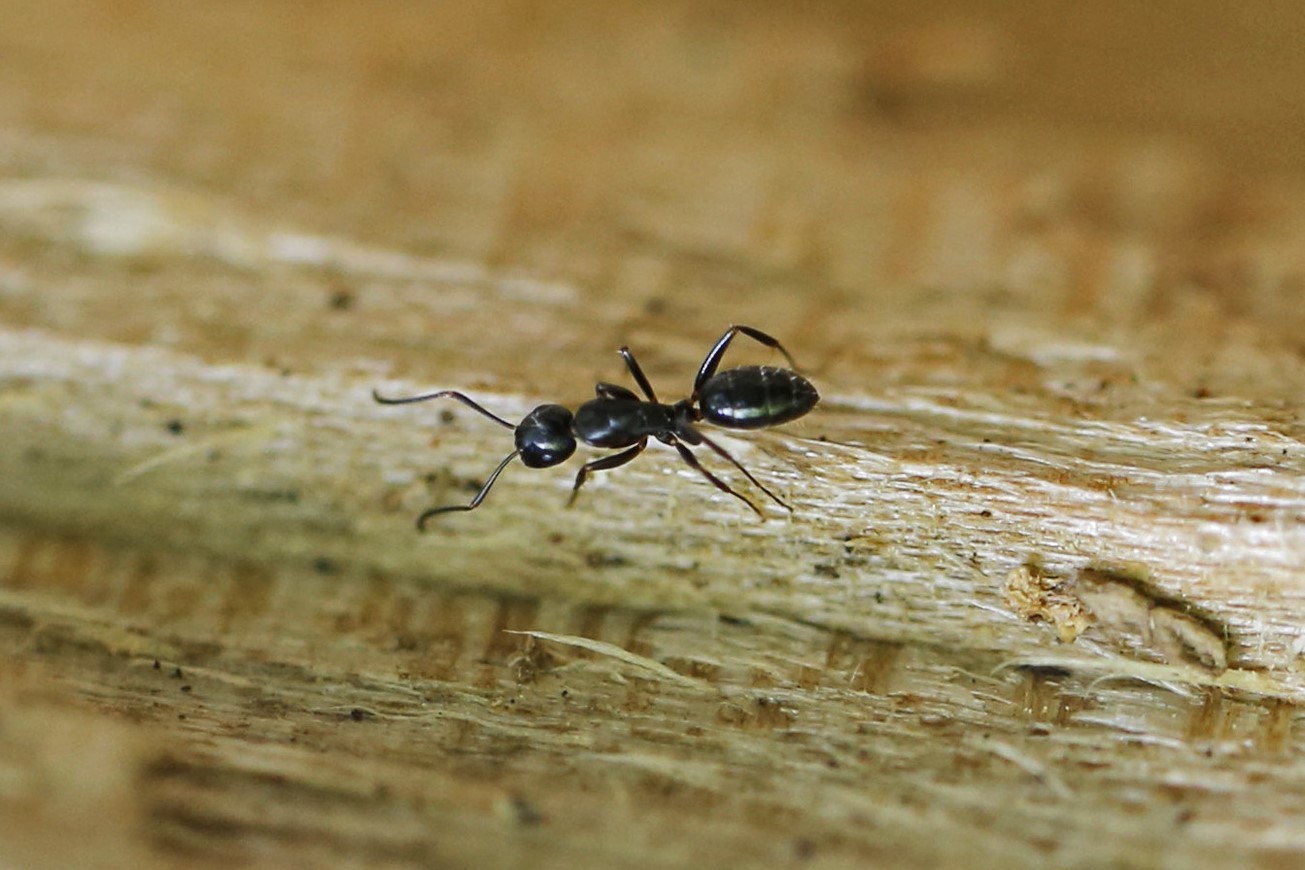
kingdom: Animalia
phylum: Arthropoda
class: Insecta
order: Hymenoptera
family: Formicidae
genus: Camponotus
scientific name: Camponotus nearcticus
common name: Smaller carpenter ant
